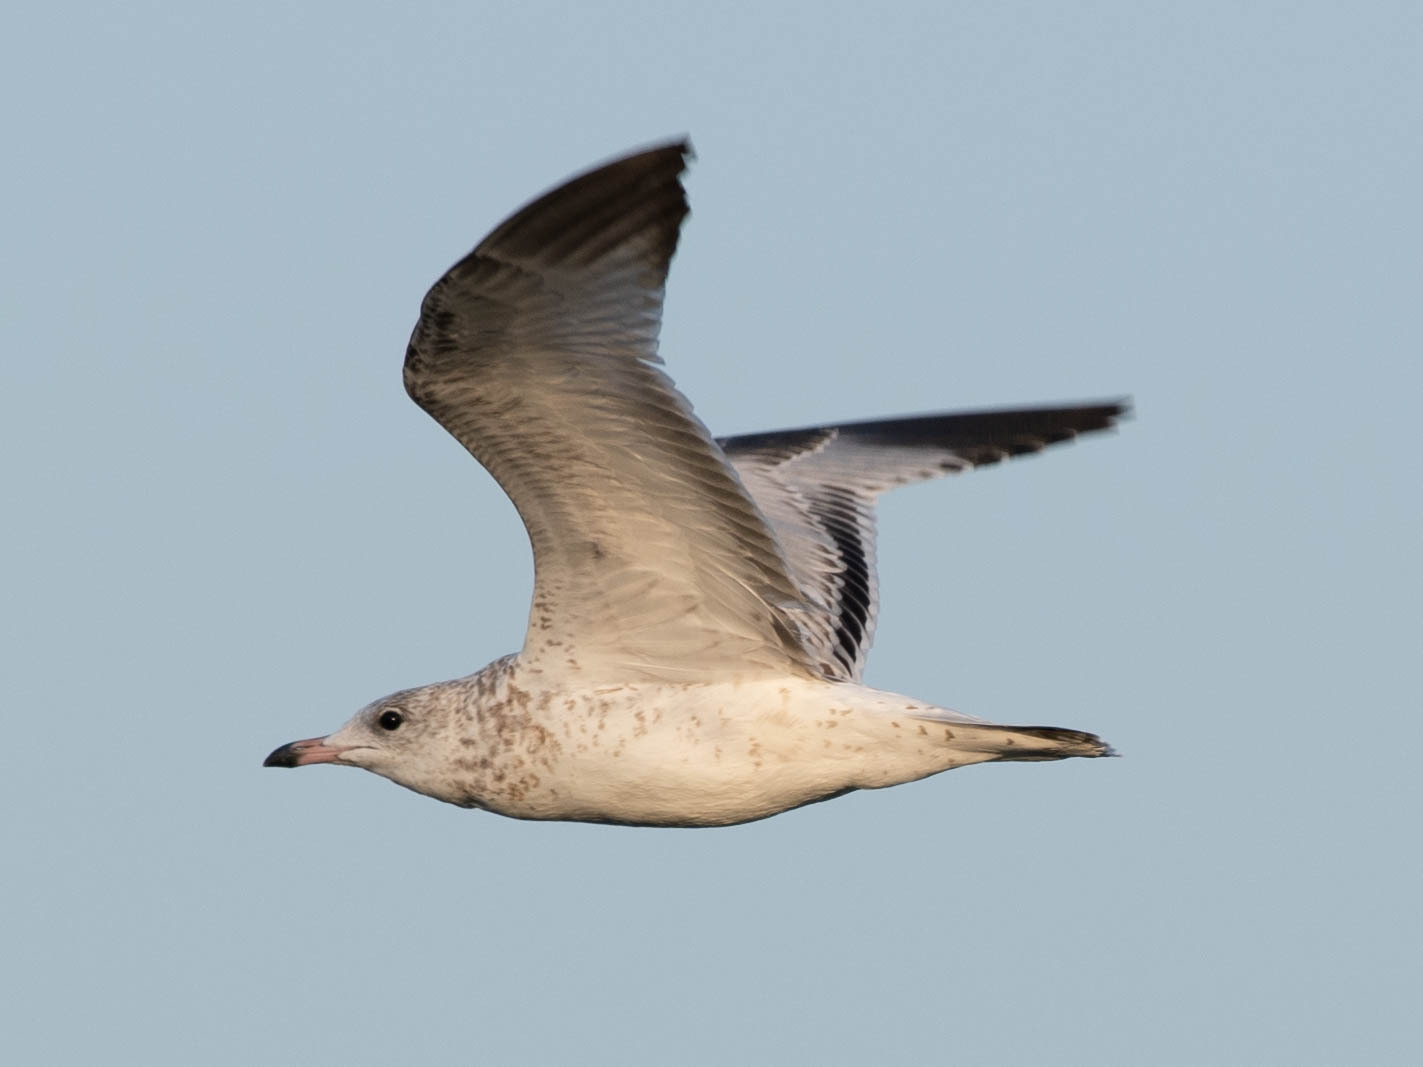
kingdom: Animalia
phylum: Chordata
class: Aves
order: Charadriiformes
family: Laridae
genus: Larus
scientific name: Larus delawarensis
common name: Ring-billed gull
